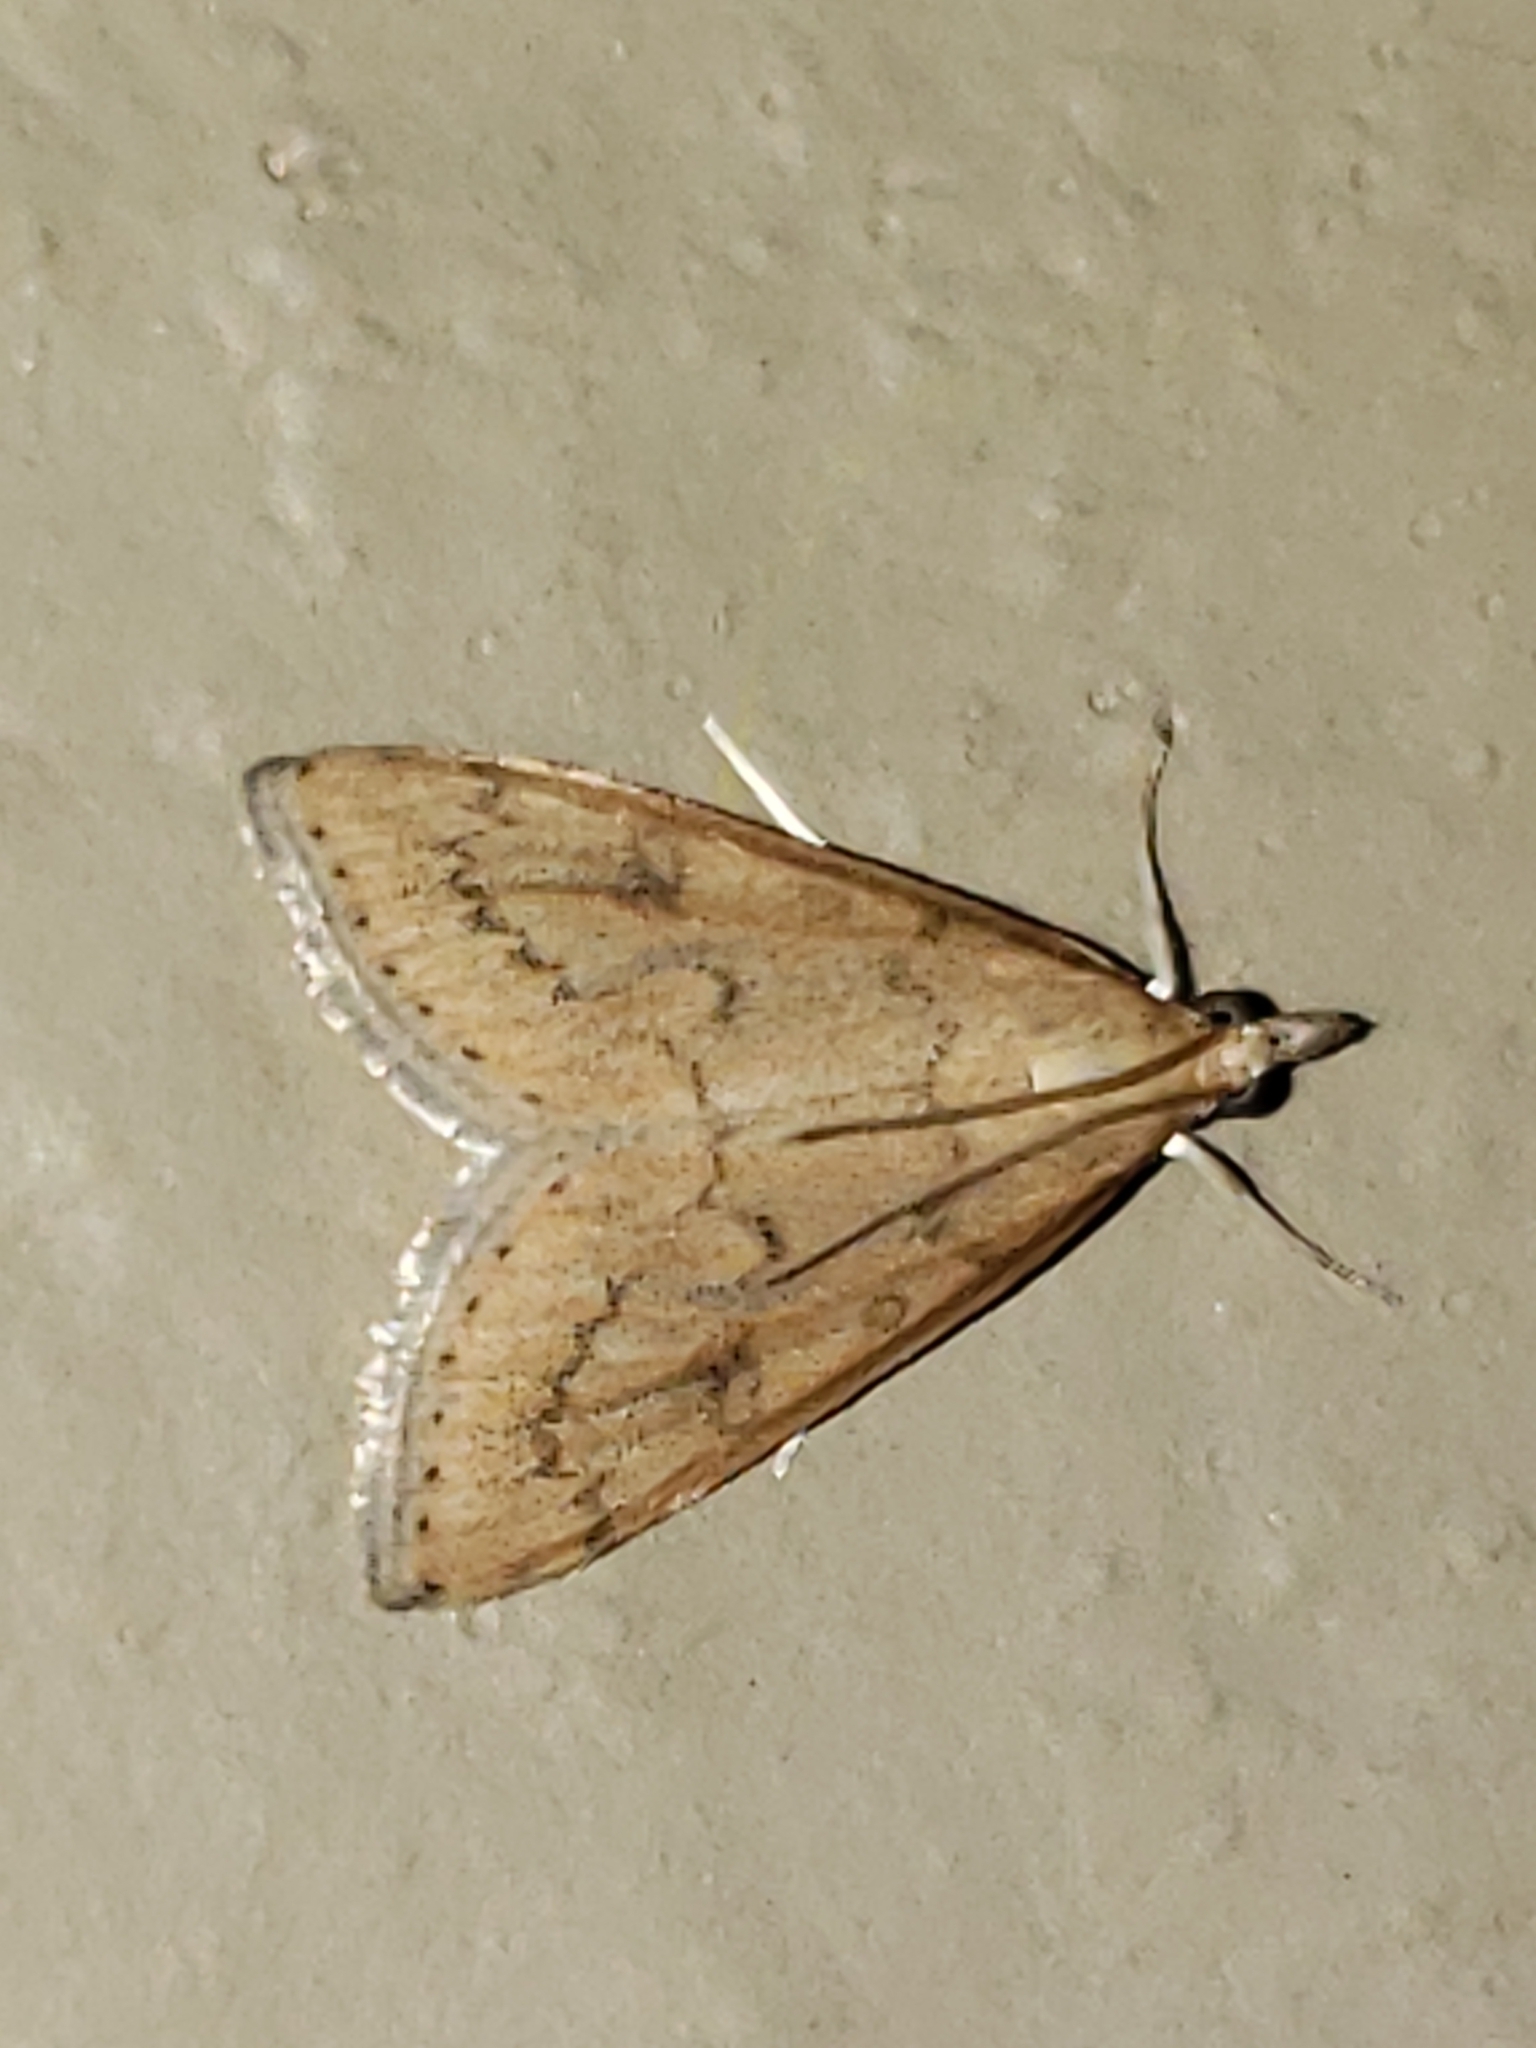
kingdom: Animalia
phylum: Arthropoda
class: Insecta
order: Lepidoptera
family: Crambidae
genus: Udea
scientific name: Udea rubigalis
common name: Celery leaftier moth
